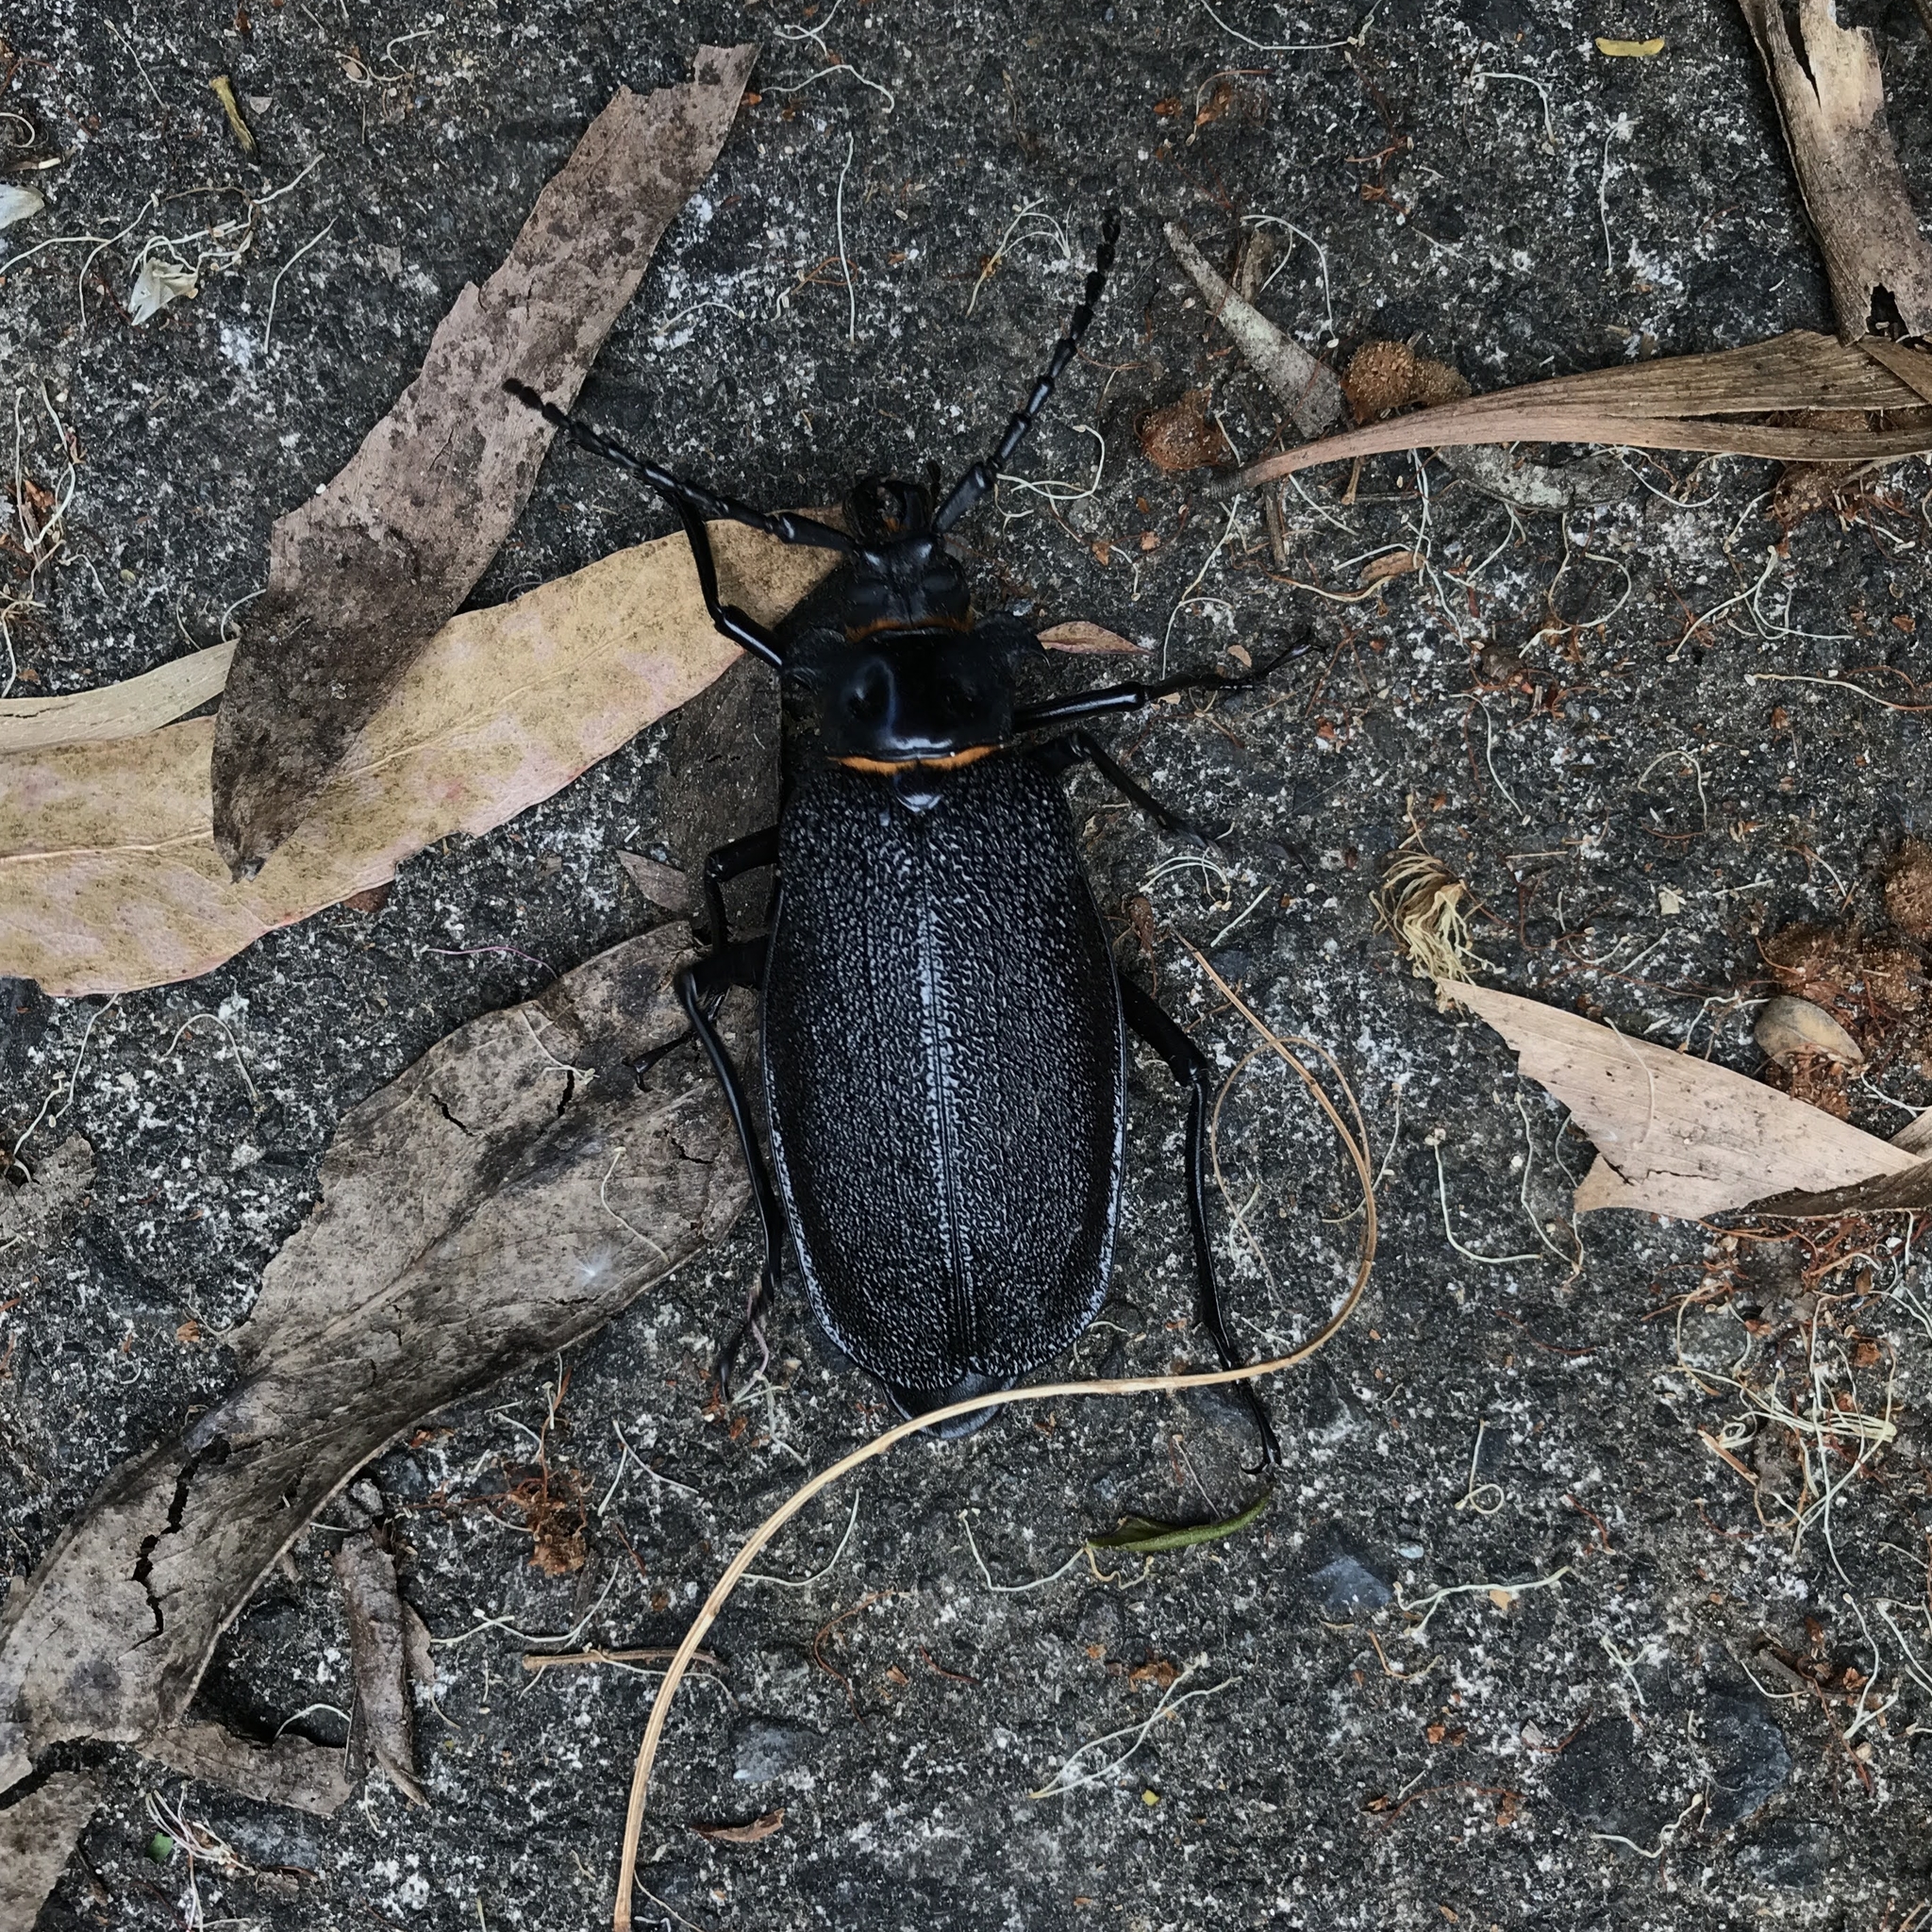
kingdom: Animalia
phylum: Arthropoda
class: Insecta
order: Coleoptera
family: Cerambycidae
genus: Acanthinodera
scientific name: Acanthinodera cumingii
